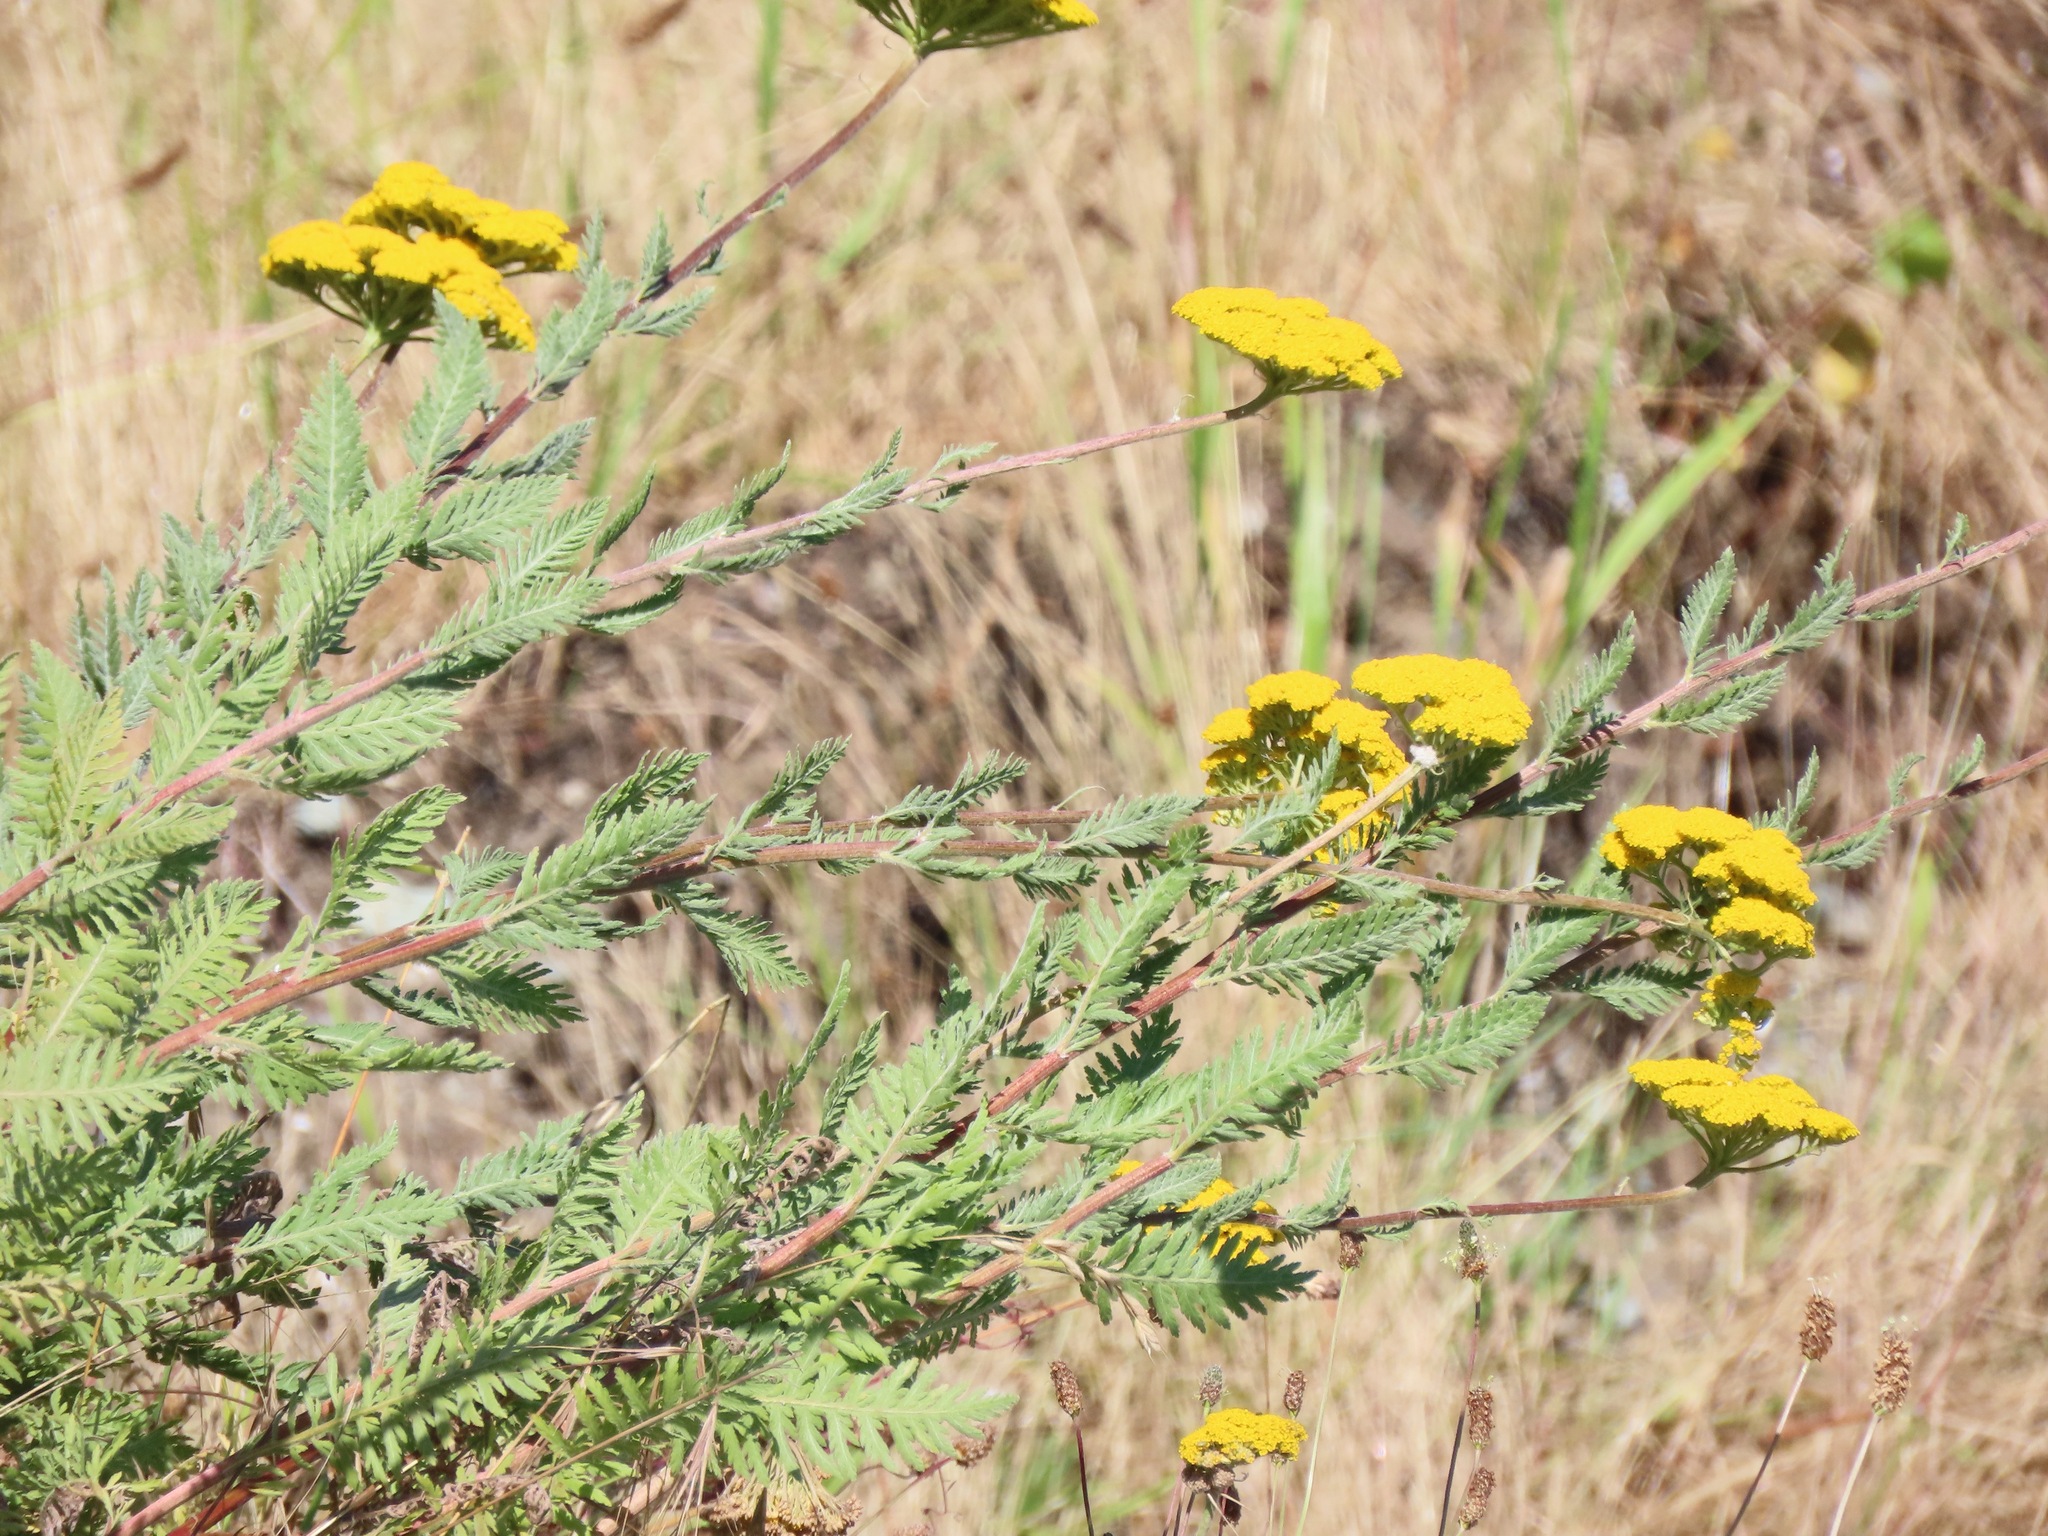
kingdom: Plantae
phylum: Tracheophyta
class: Magnoliopsida
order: Asterales
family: Asteraceae
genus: Achillea
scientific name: Achillea filipendulina
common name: Fernleaf yarrow
